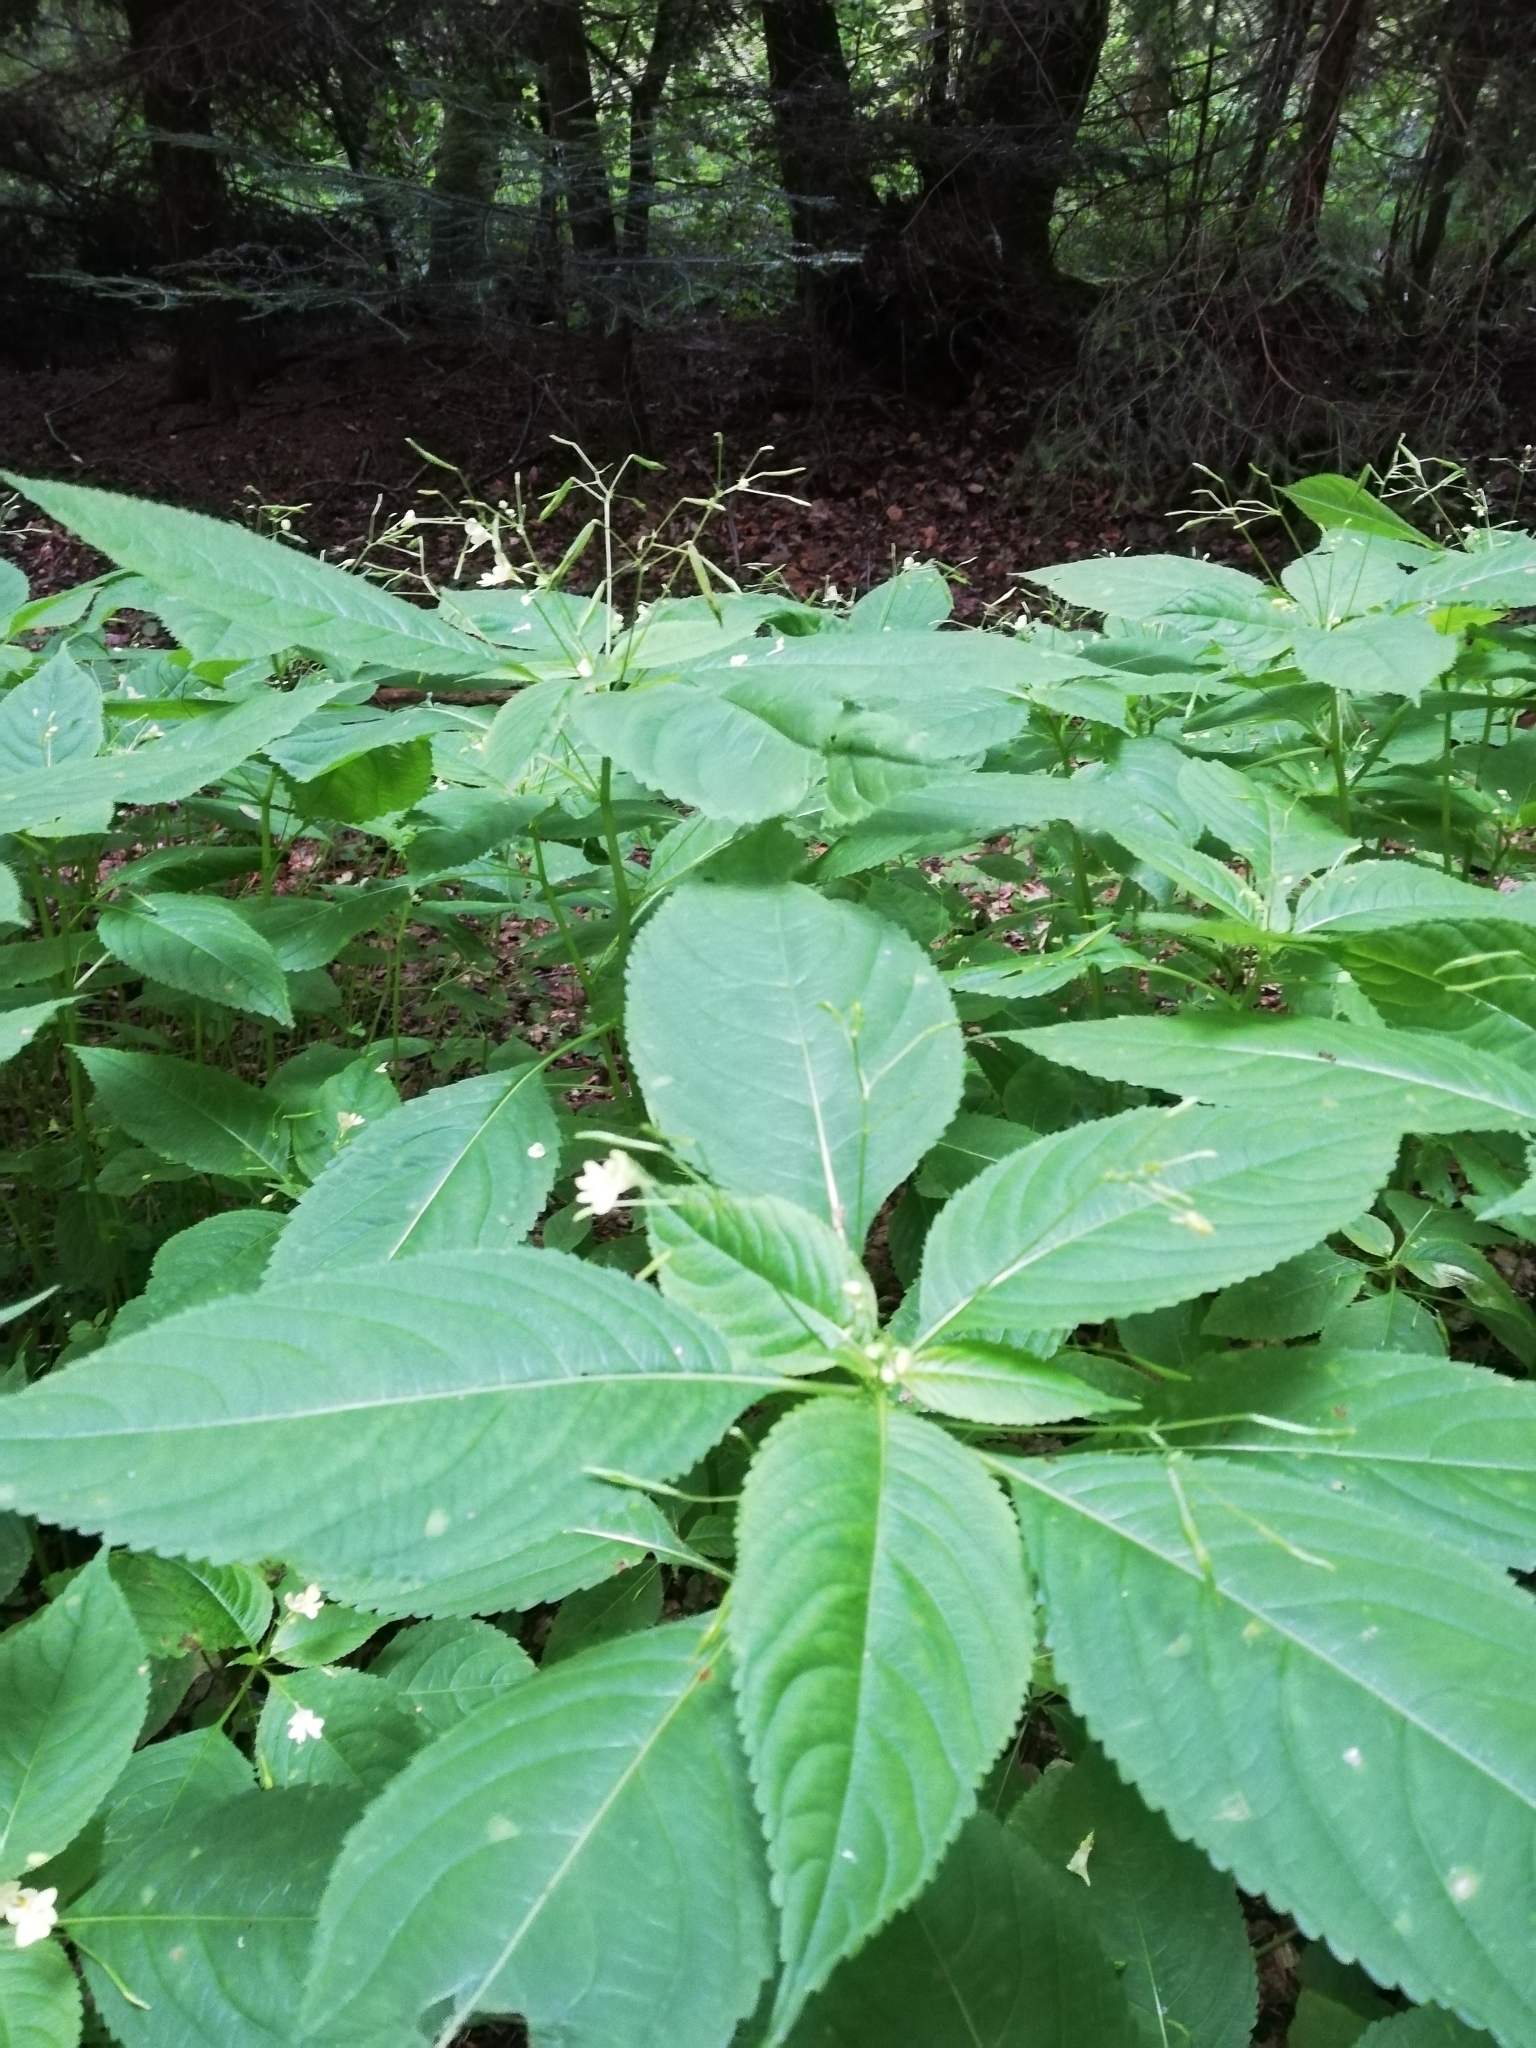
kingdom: Plantae
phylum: Tracheophyta
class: Magnoliopsida
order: Ericales
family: Balsaminaceae
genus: Impatiens
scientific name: Impatiens parviflora
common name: Small balsam
